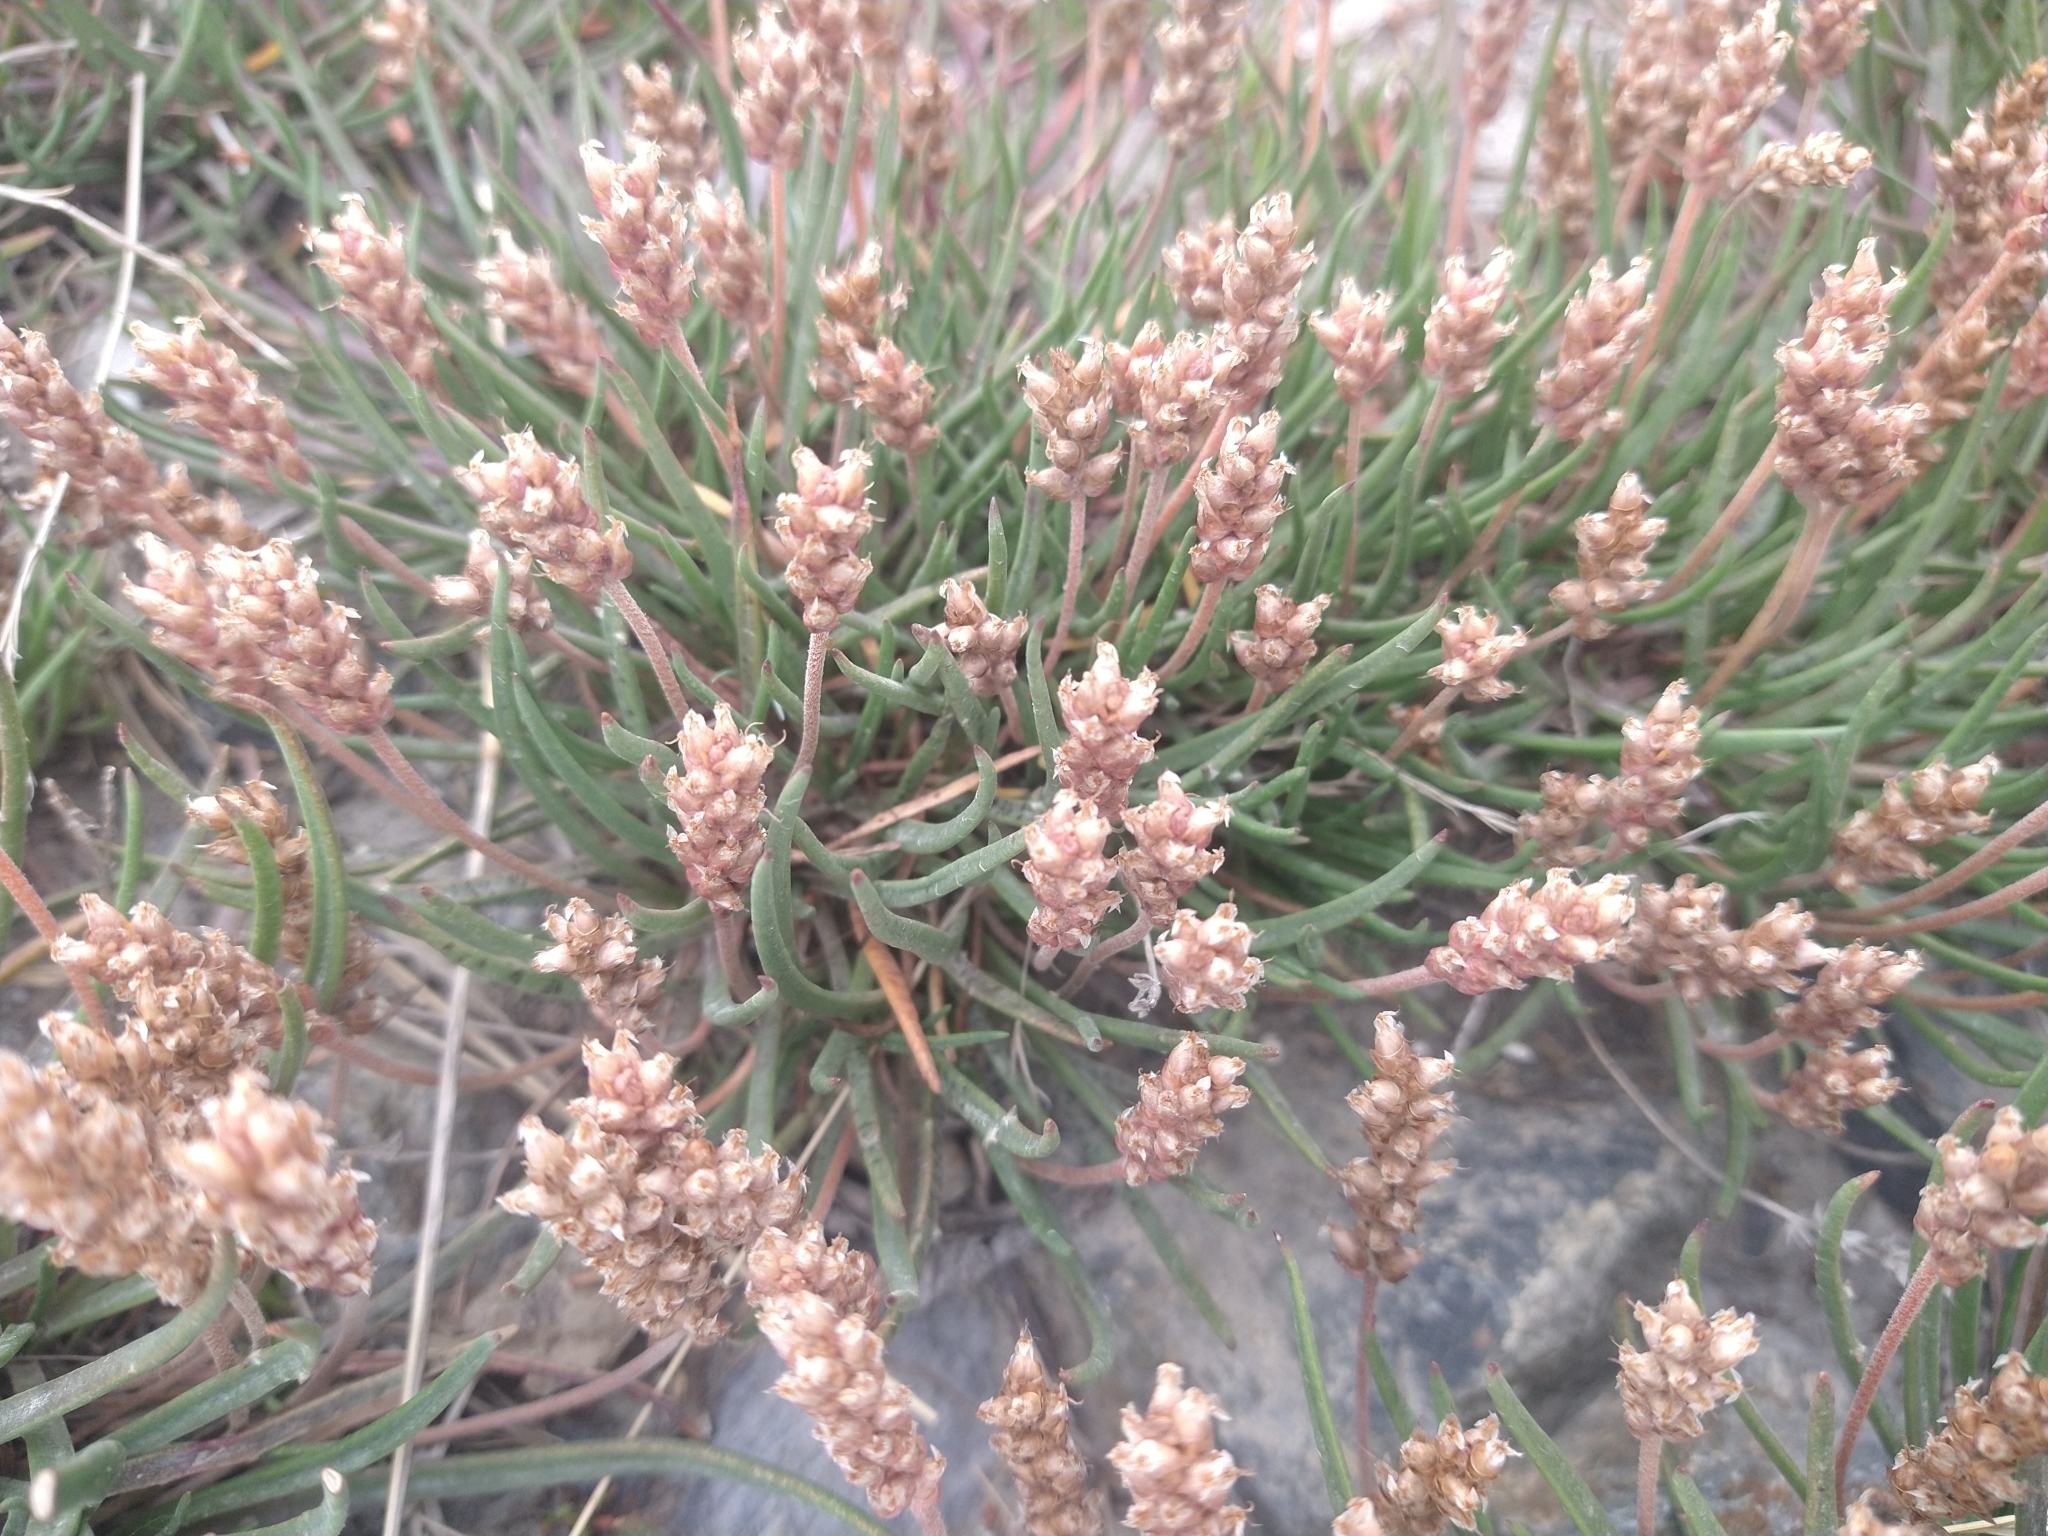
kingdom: Plantae
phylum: Tracheophyta
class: Magnoliopsida
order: Lamiales
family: Plantaginaceae
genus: Plantago
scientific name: Plantago maritima
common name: Sea plantain
